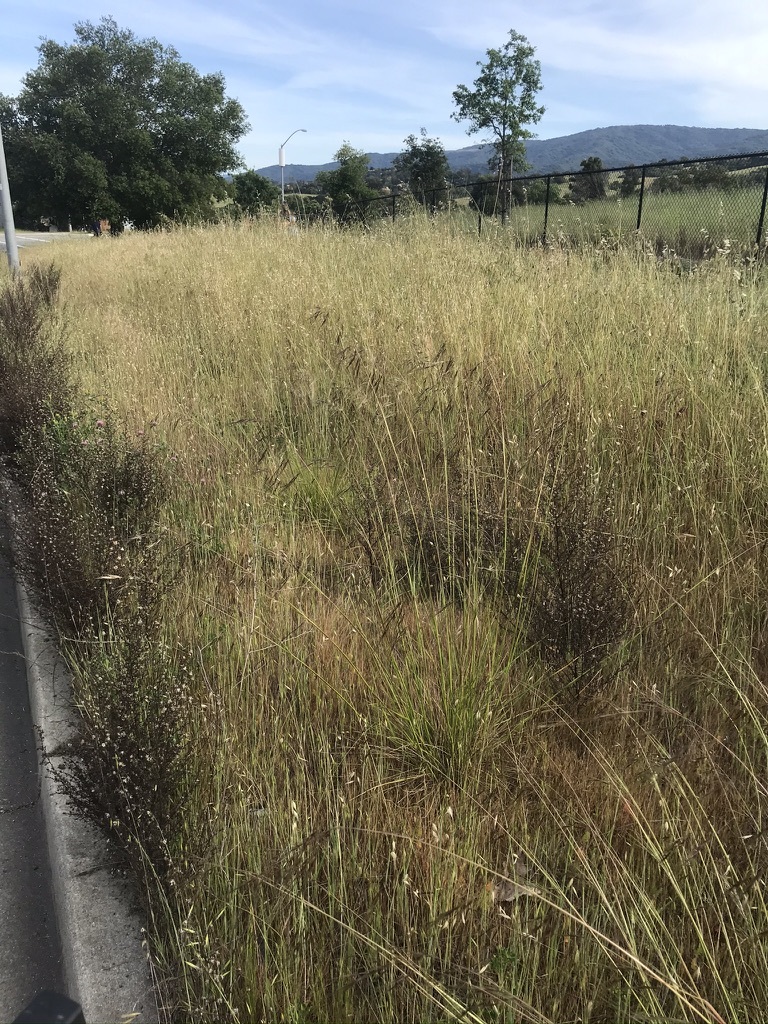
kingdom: Plantae
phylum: Tracheophyta
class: Liliopsida
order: Poales
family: Poaceae
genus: Nassella
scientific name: Nassella pulchra
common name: Purple needlegrass
